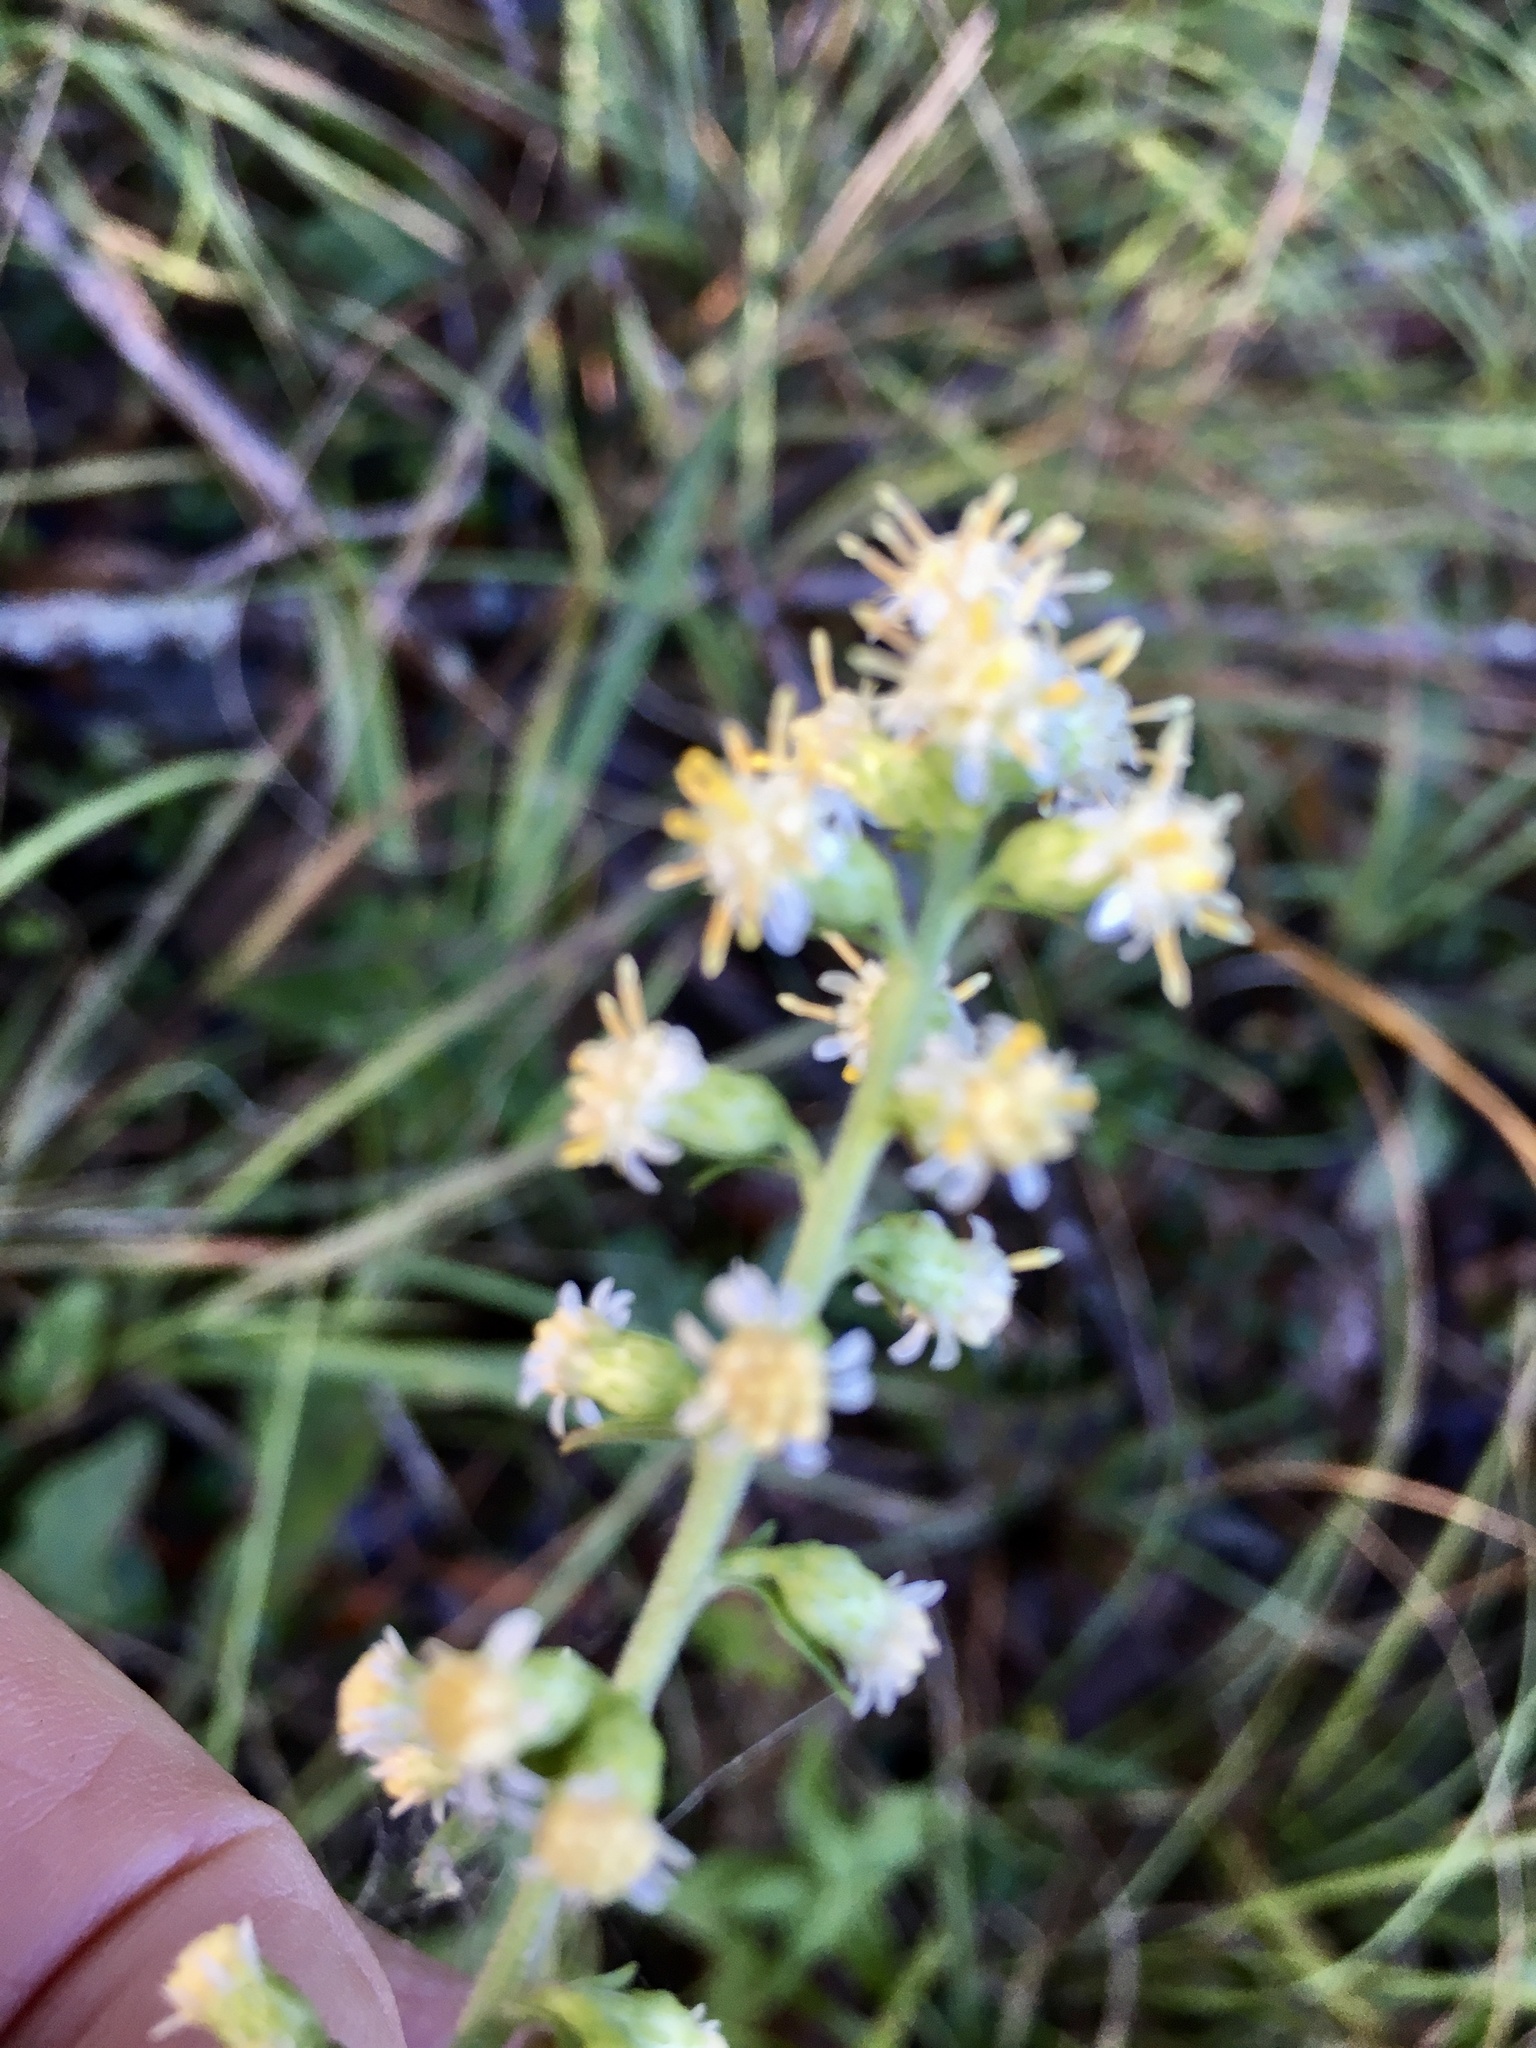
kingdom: Plantae
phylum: Tracheophyta
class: Magnoliopsida
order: Asterales
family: Asteraceae
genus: Solidago
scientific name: Solidago bicolor
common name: Silverrod
